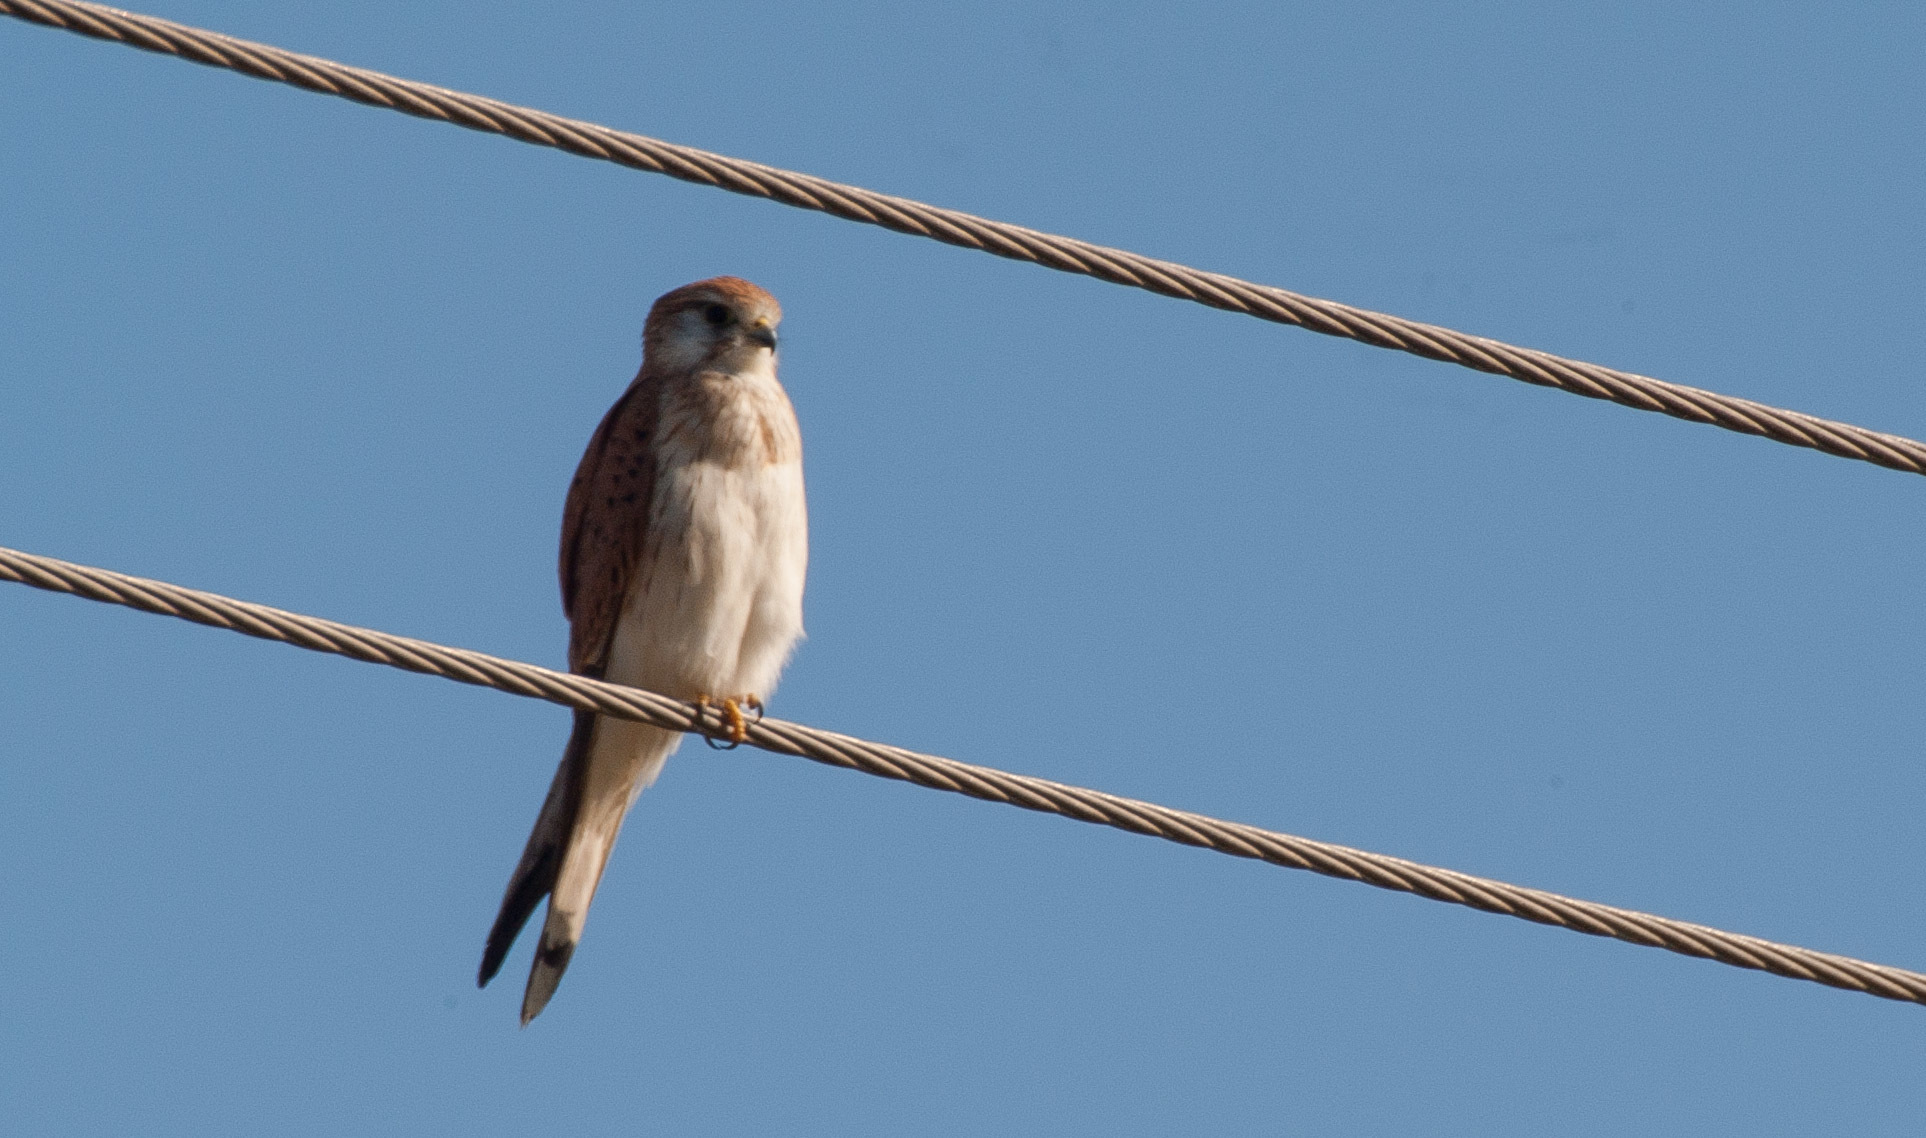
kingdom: Animalia
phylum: Chordata
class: Aves
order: Falconiformes
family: Falconidae
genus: Falco
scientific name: Falco cenchroides
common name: Nankeen kestrel
